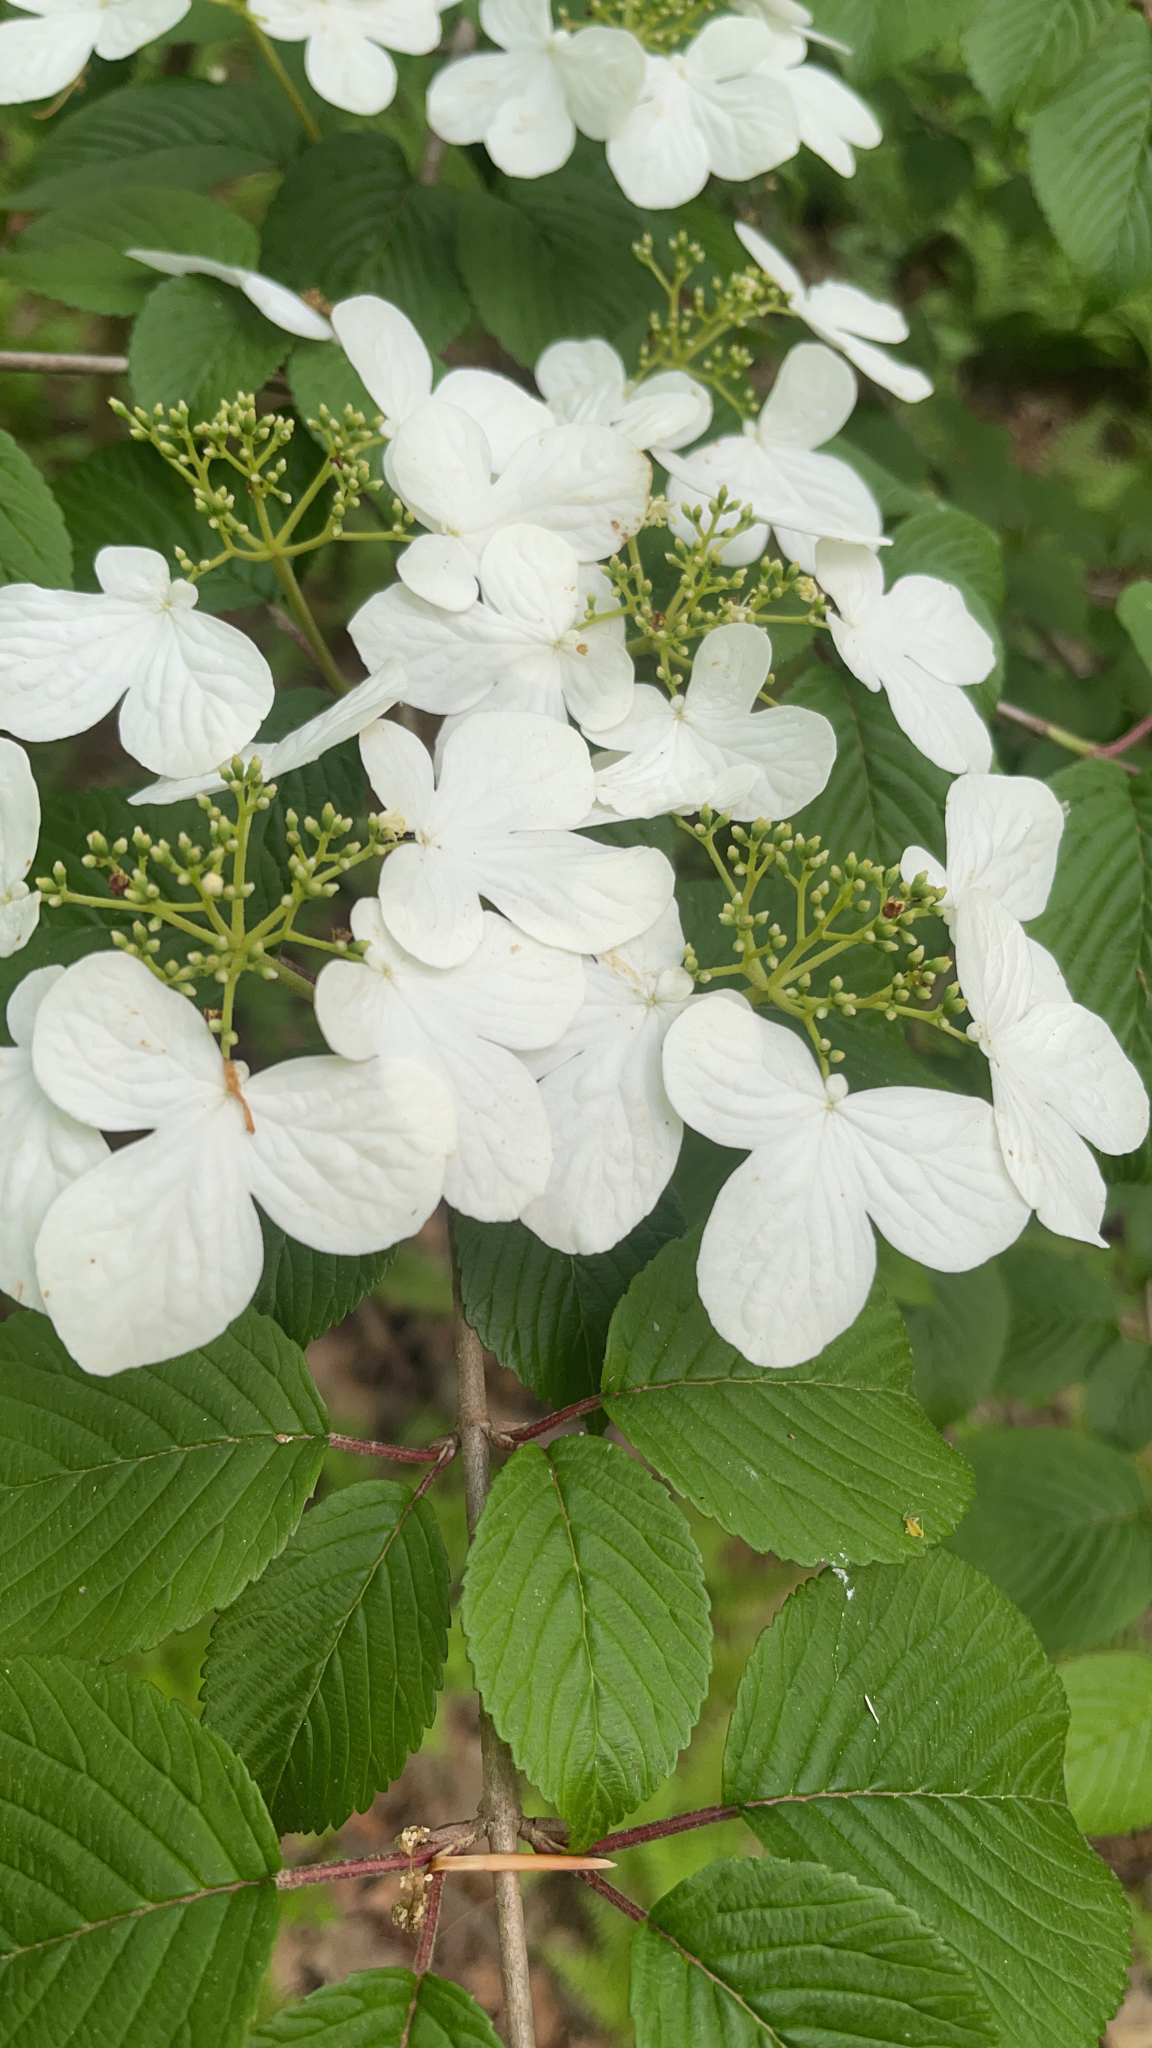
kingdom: Plantae
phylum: Tracheophyta
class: Magnoliopsida
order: Dipsacales
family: Viburnaceae
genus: Viburnum
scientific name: Viburnum plicatum
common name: Japanese snowball
